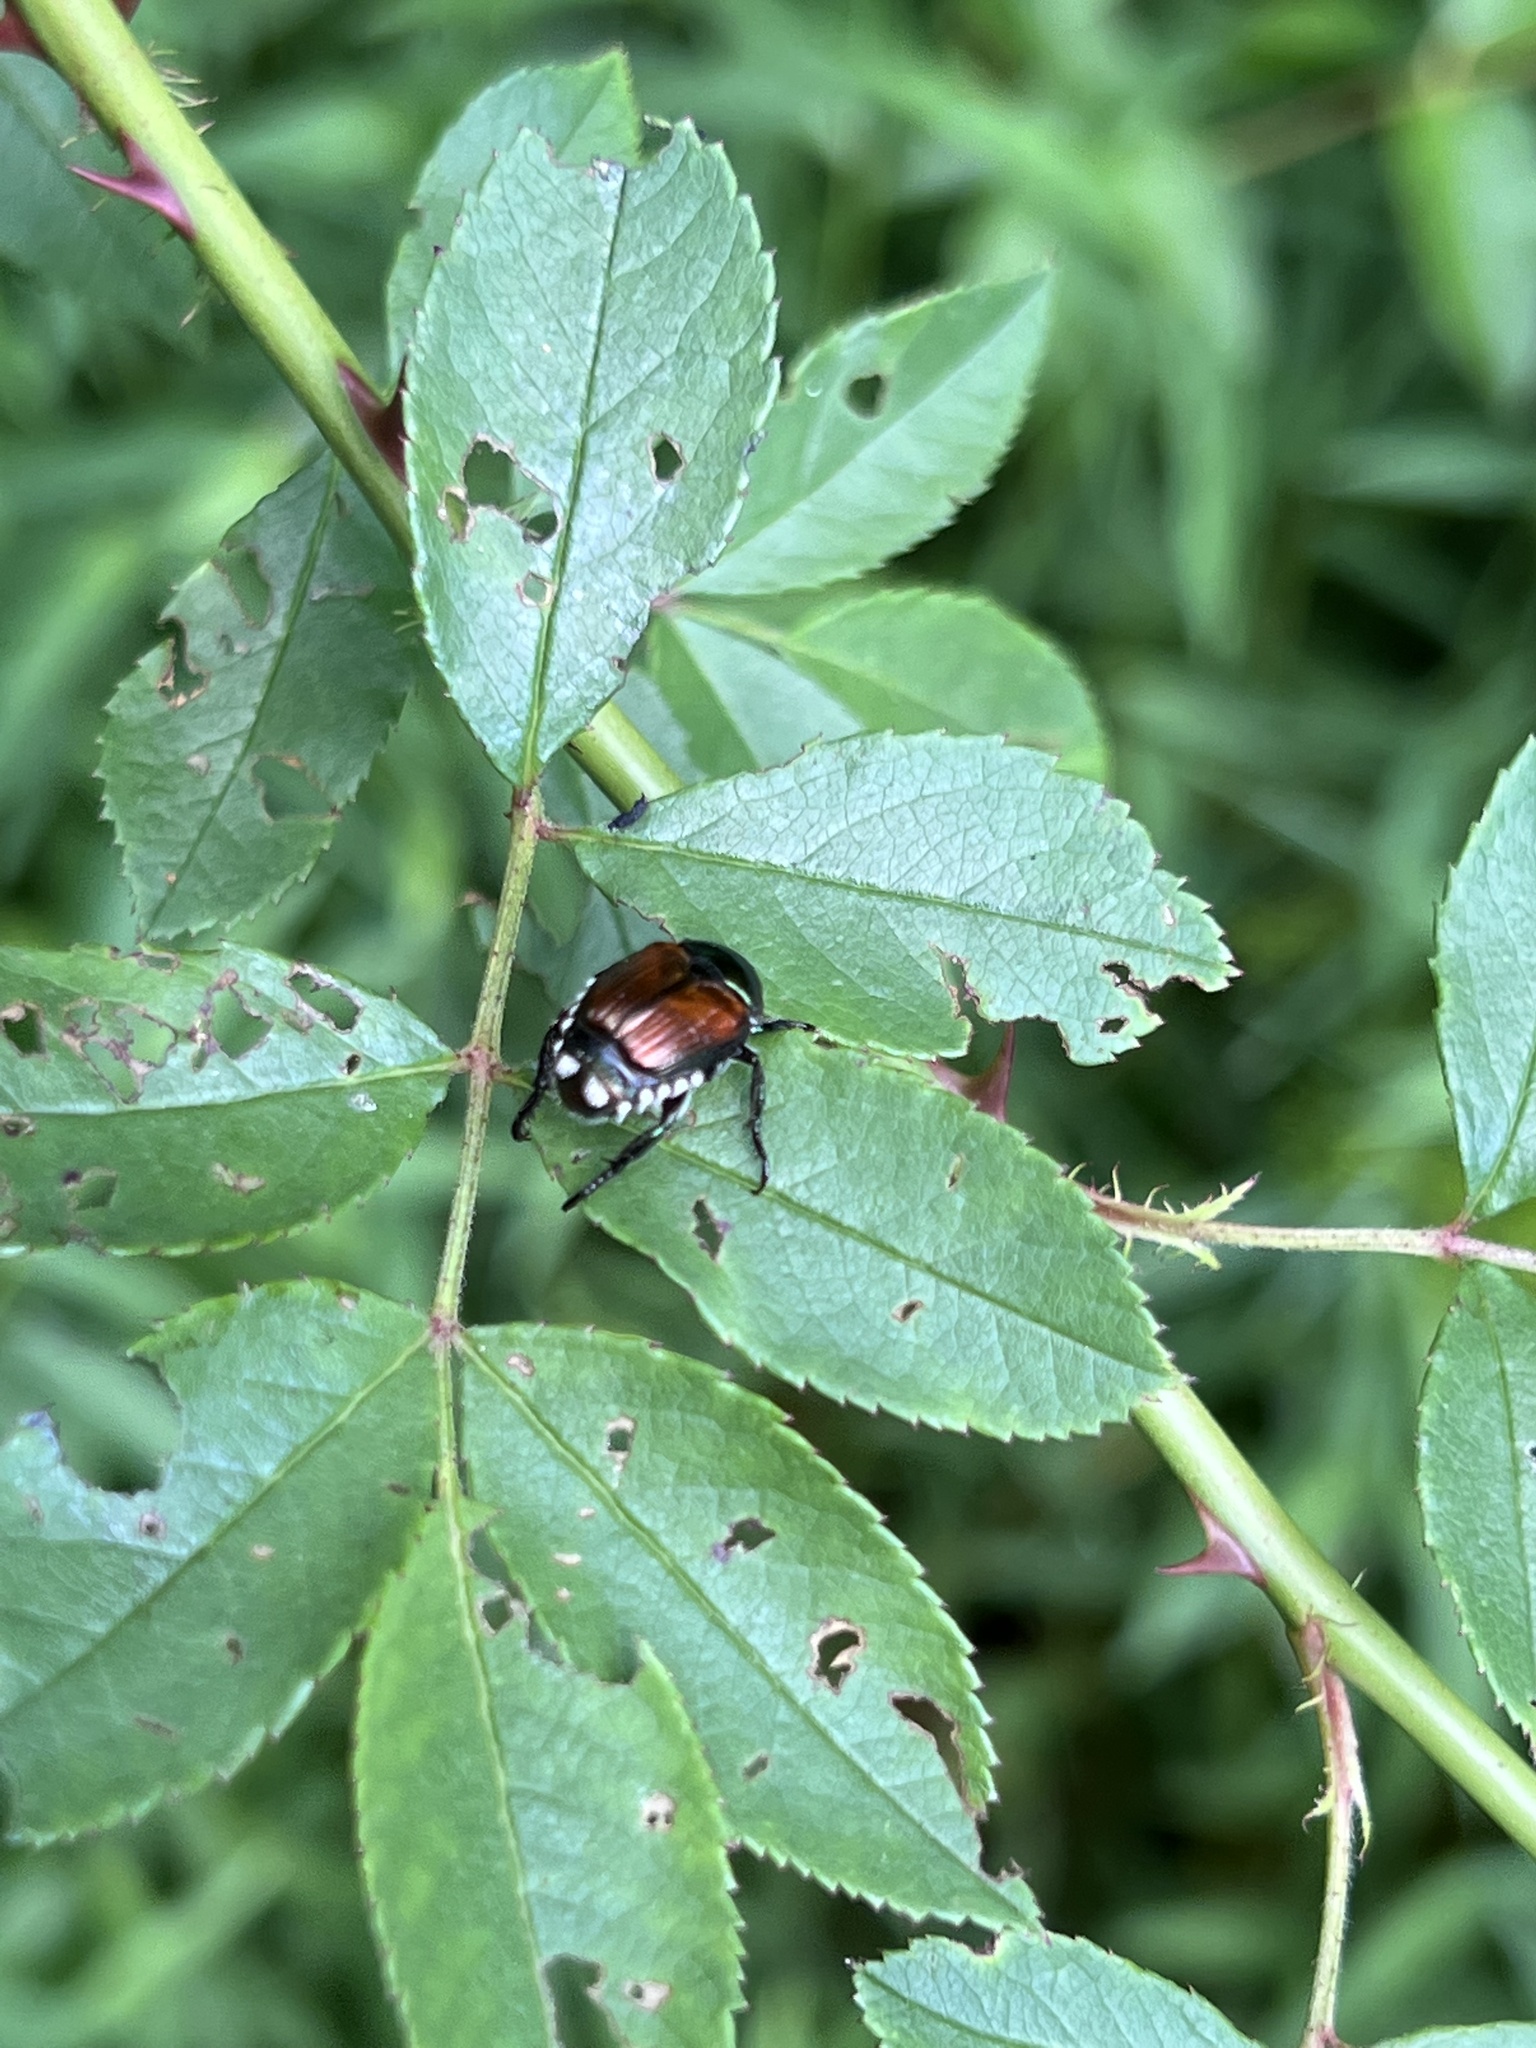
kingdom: Animalia
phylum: Arthropoda
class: Insecta
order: Coleoptera
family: Scarabaeidae
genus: Popillia
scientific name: Popillia japonica
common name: Japanese beetle
